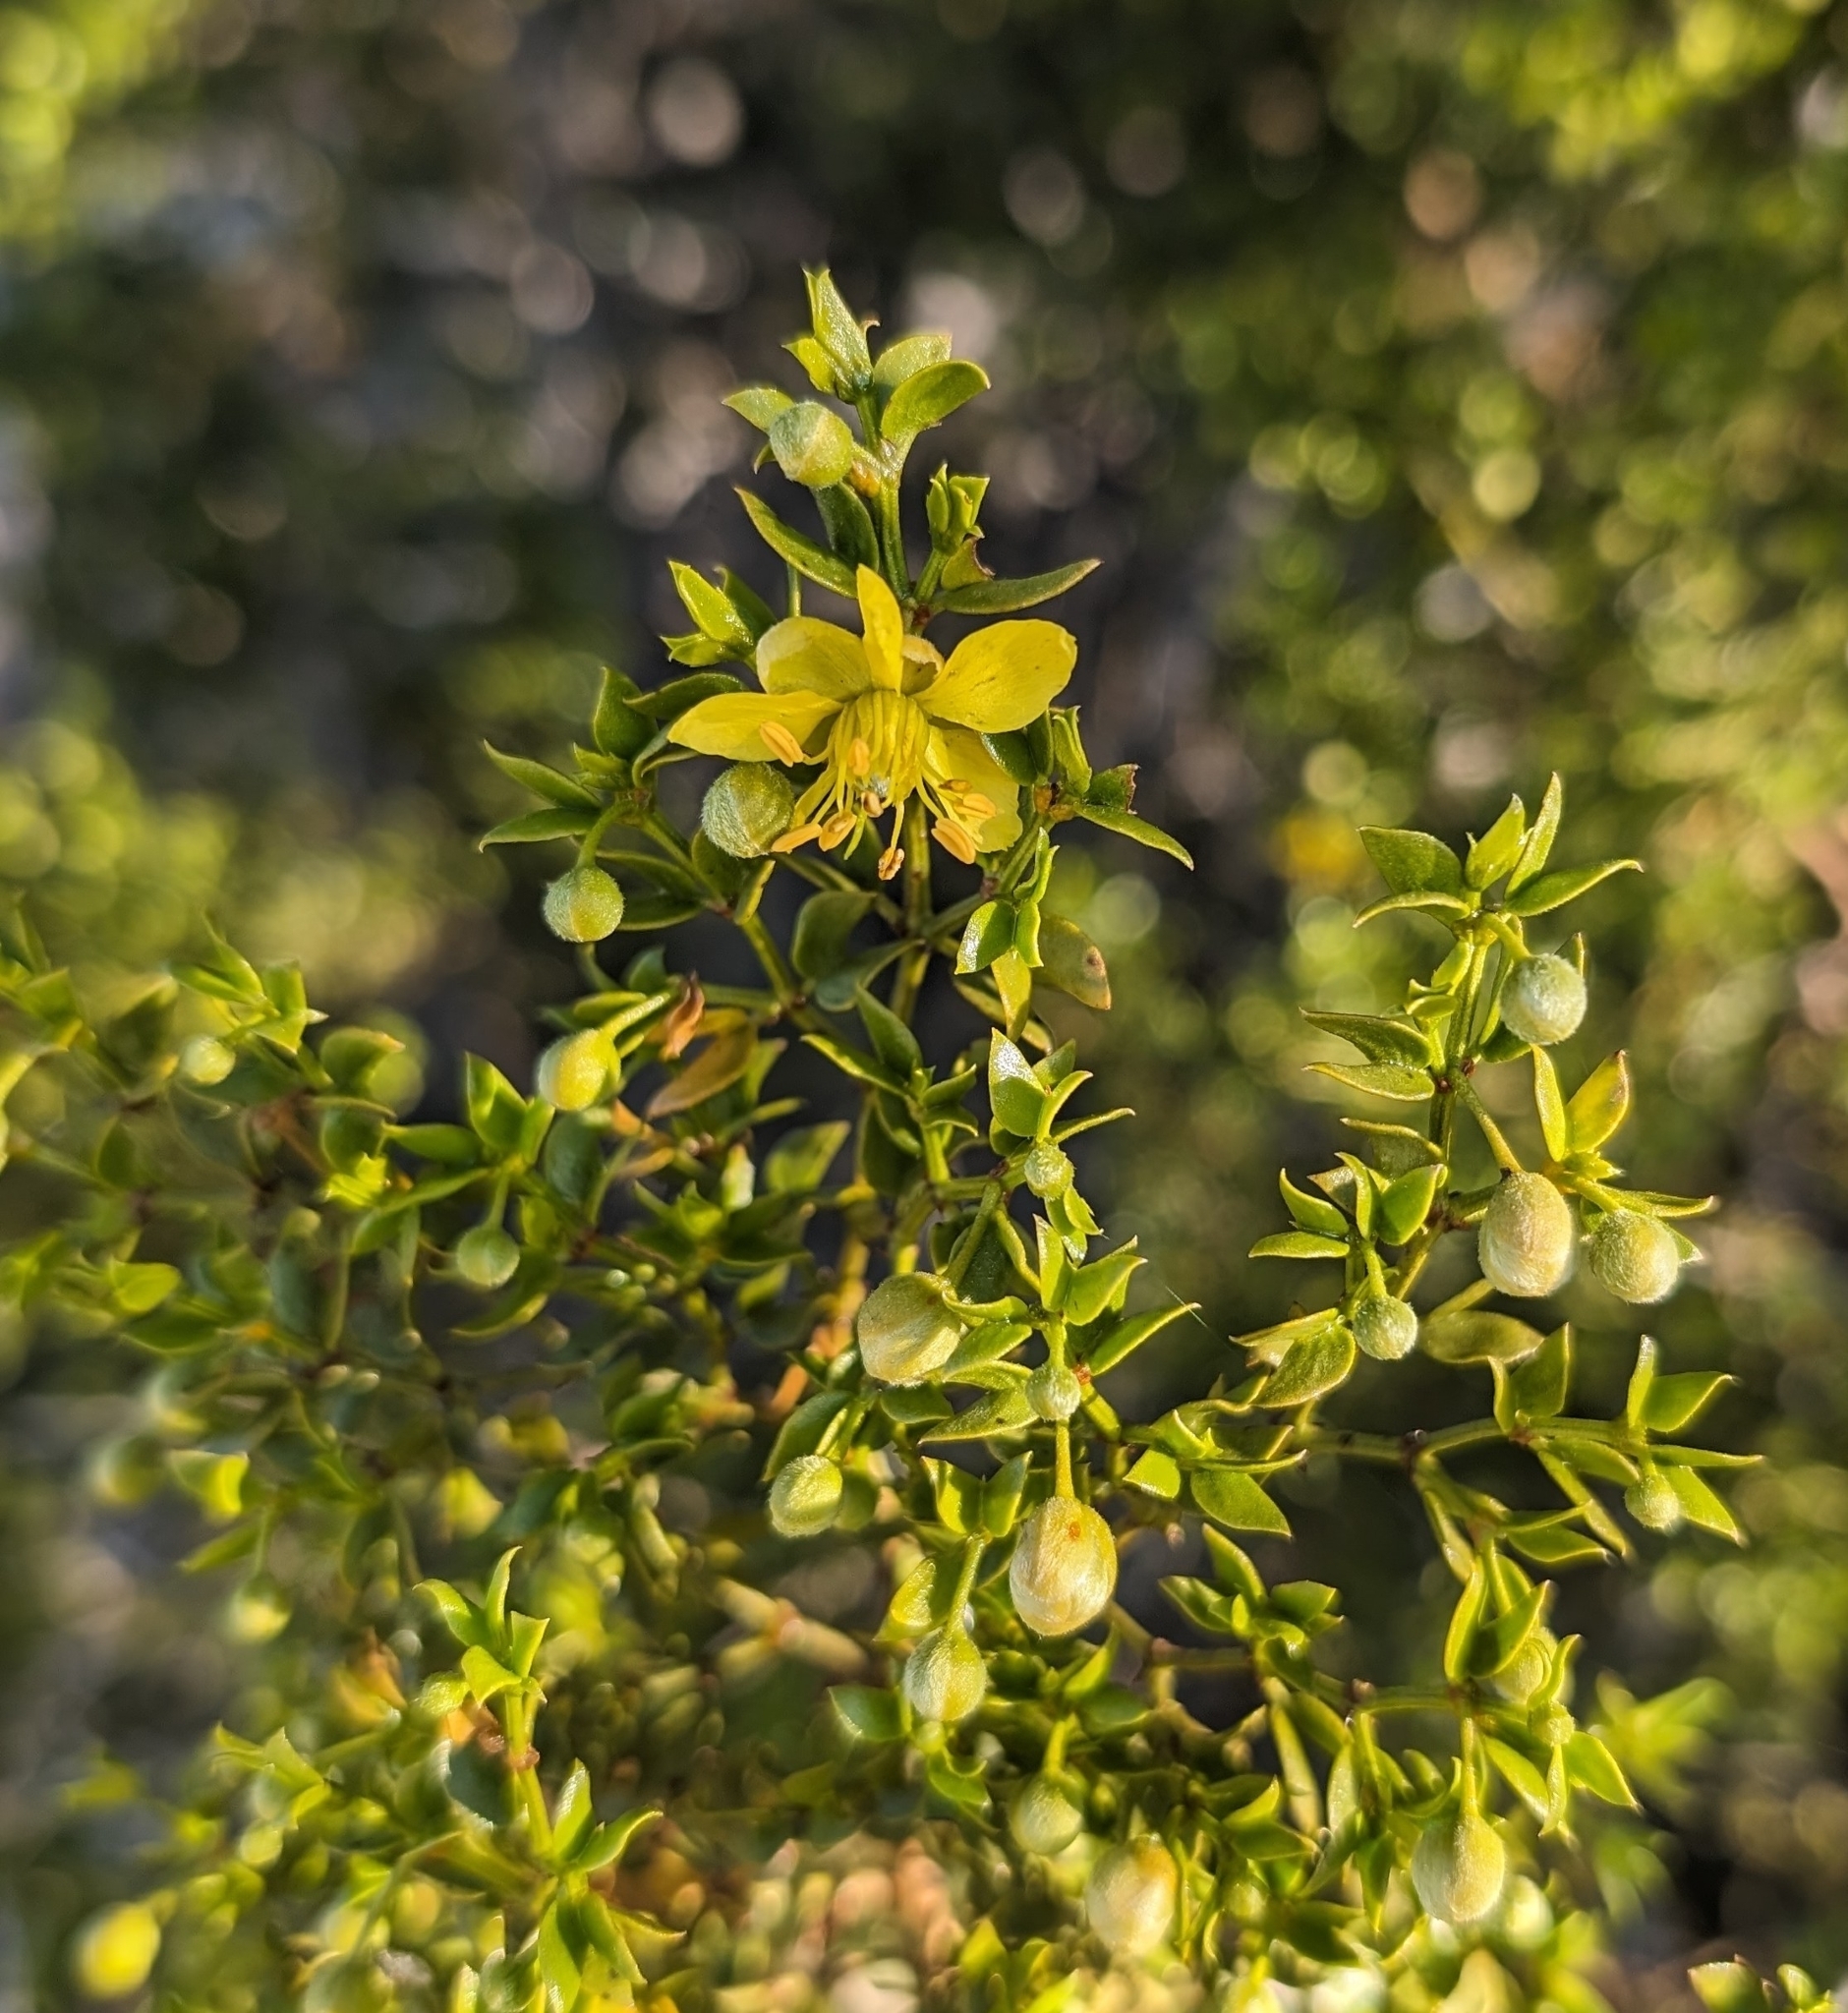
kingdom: Plantae
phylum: Tracheophyta
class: Magnoliopsida
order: Zygophyllales
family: Zygophyllaceae
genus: Larrea
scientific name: Larrea tridentata
